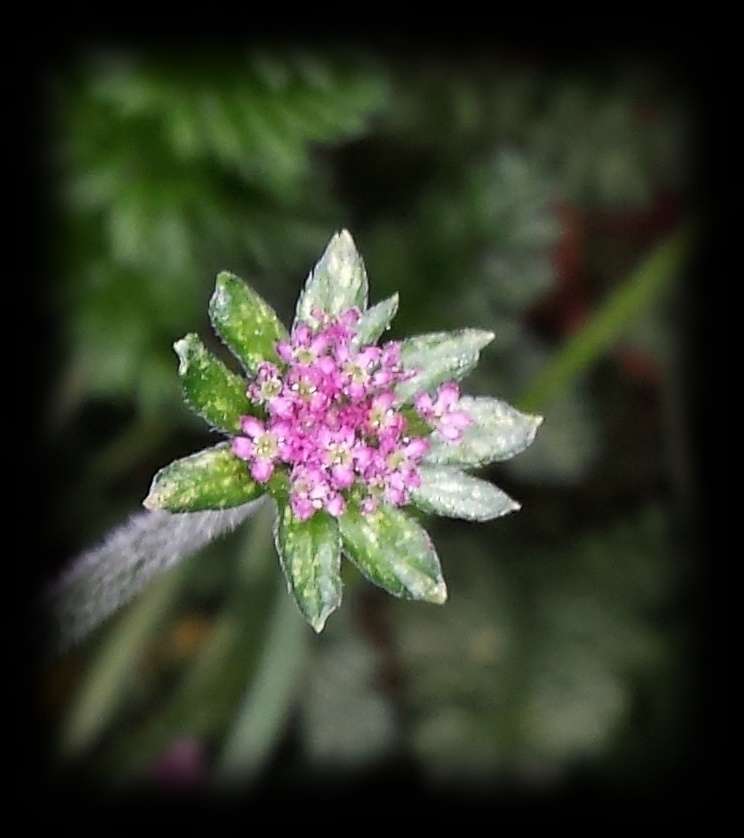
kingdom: Plantae
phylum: Tracheophyta
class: Magnoliopsida
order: Apiales
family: Apiaceae
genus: Chaerophyllum
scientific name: Chaerophyllum eriopodum
